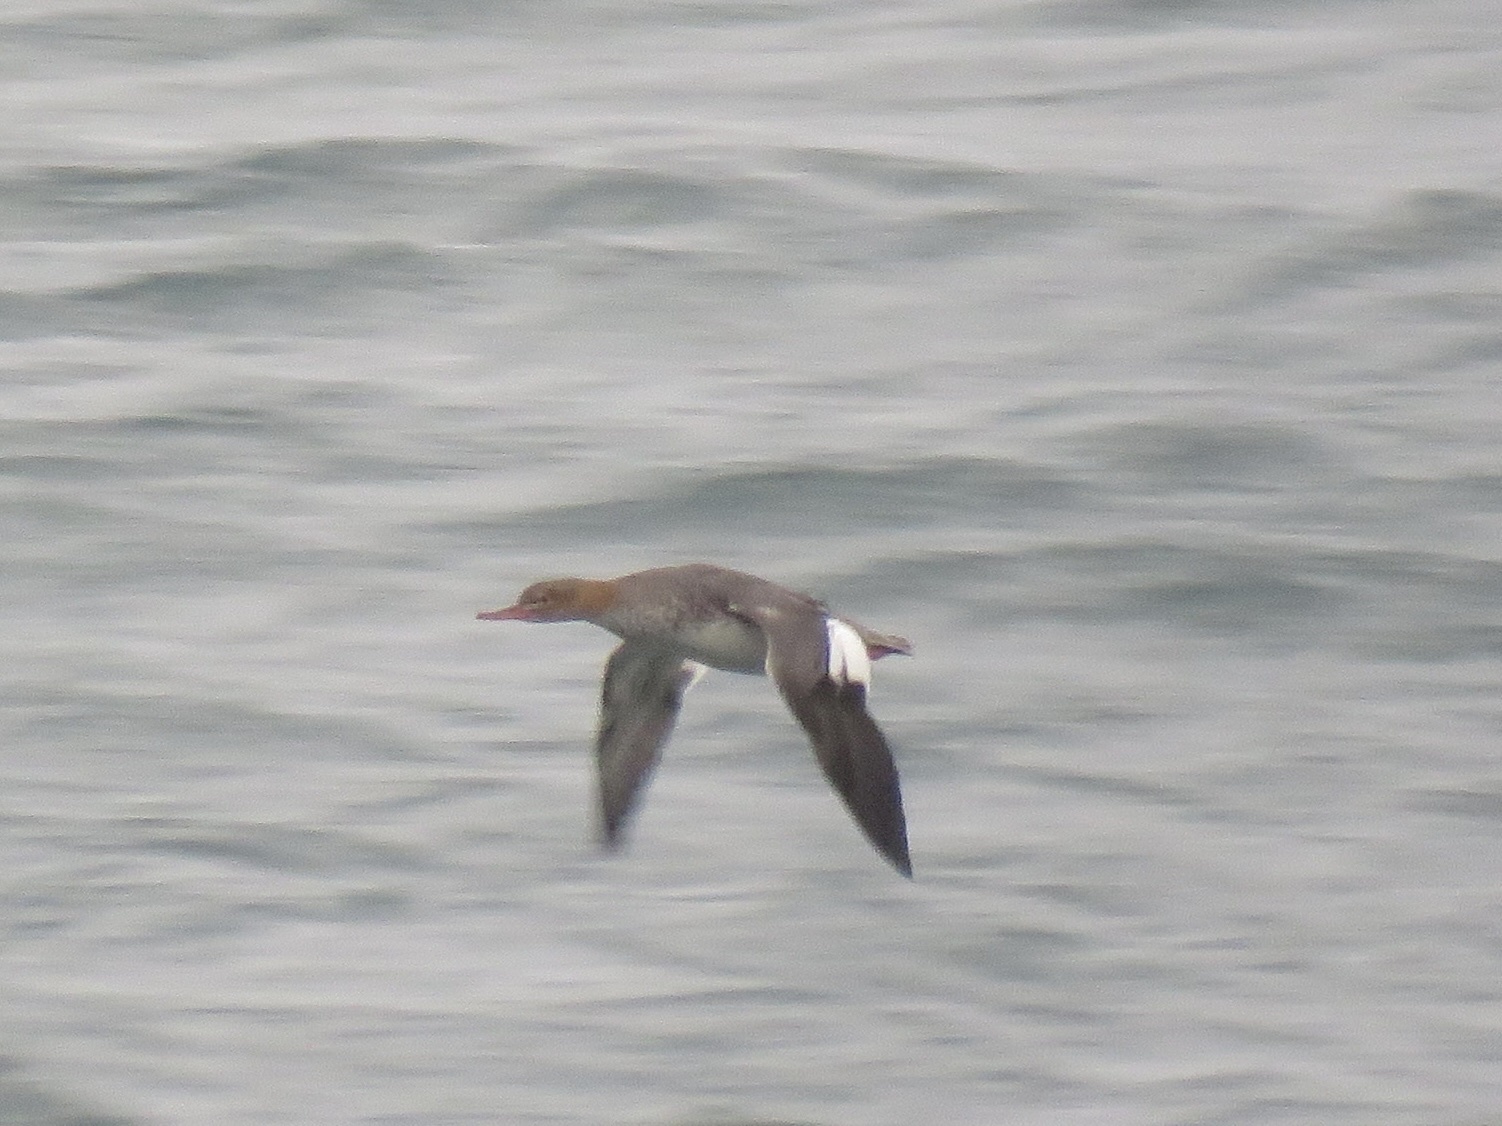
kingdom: Animalia
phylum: Chordata
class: Aves
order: Anseriformes
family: Anatidae
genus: Mergus
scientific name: Mergus serrator
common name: Red-breasted merganser
